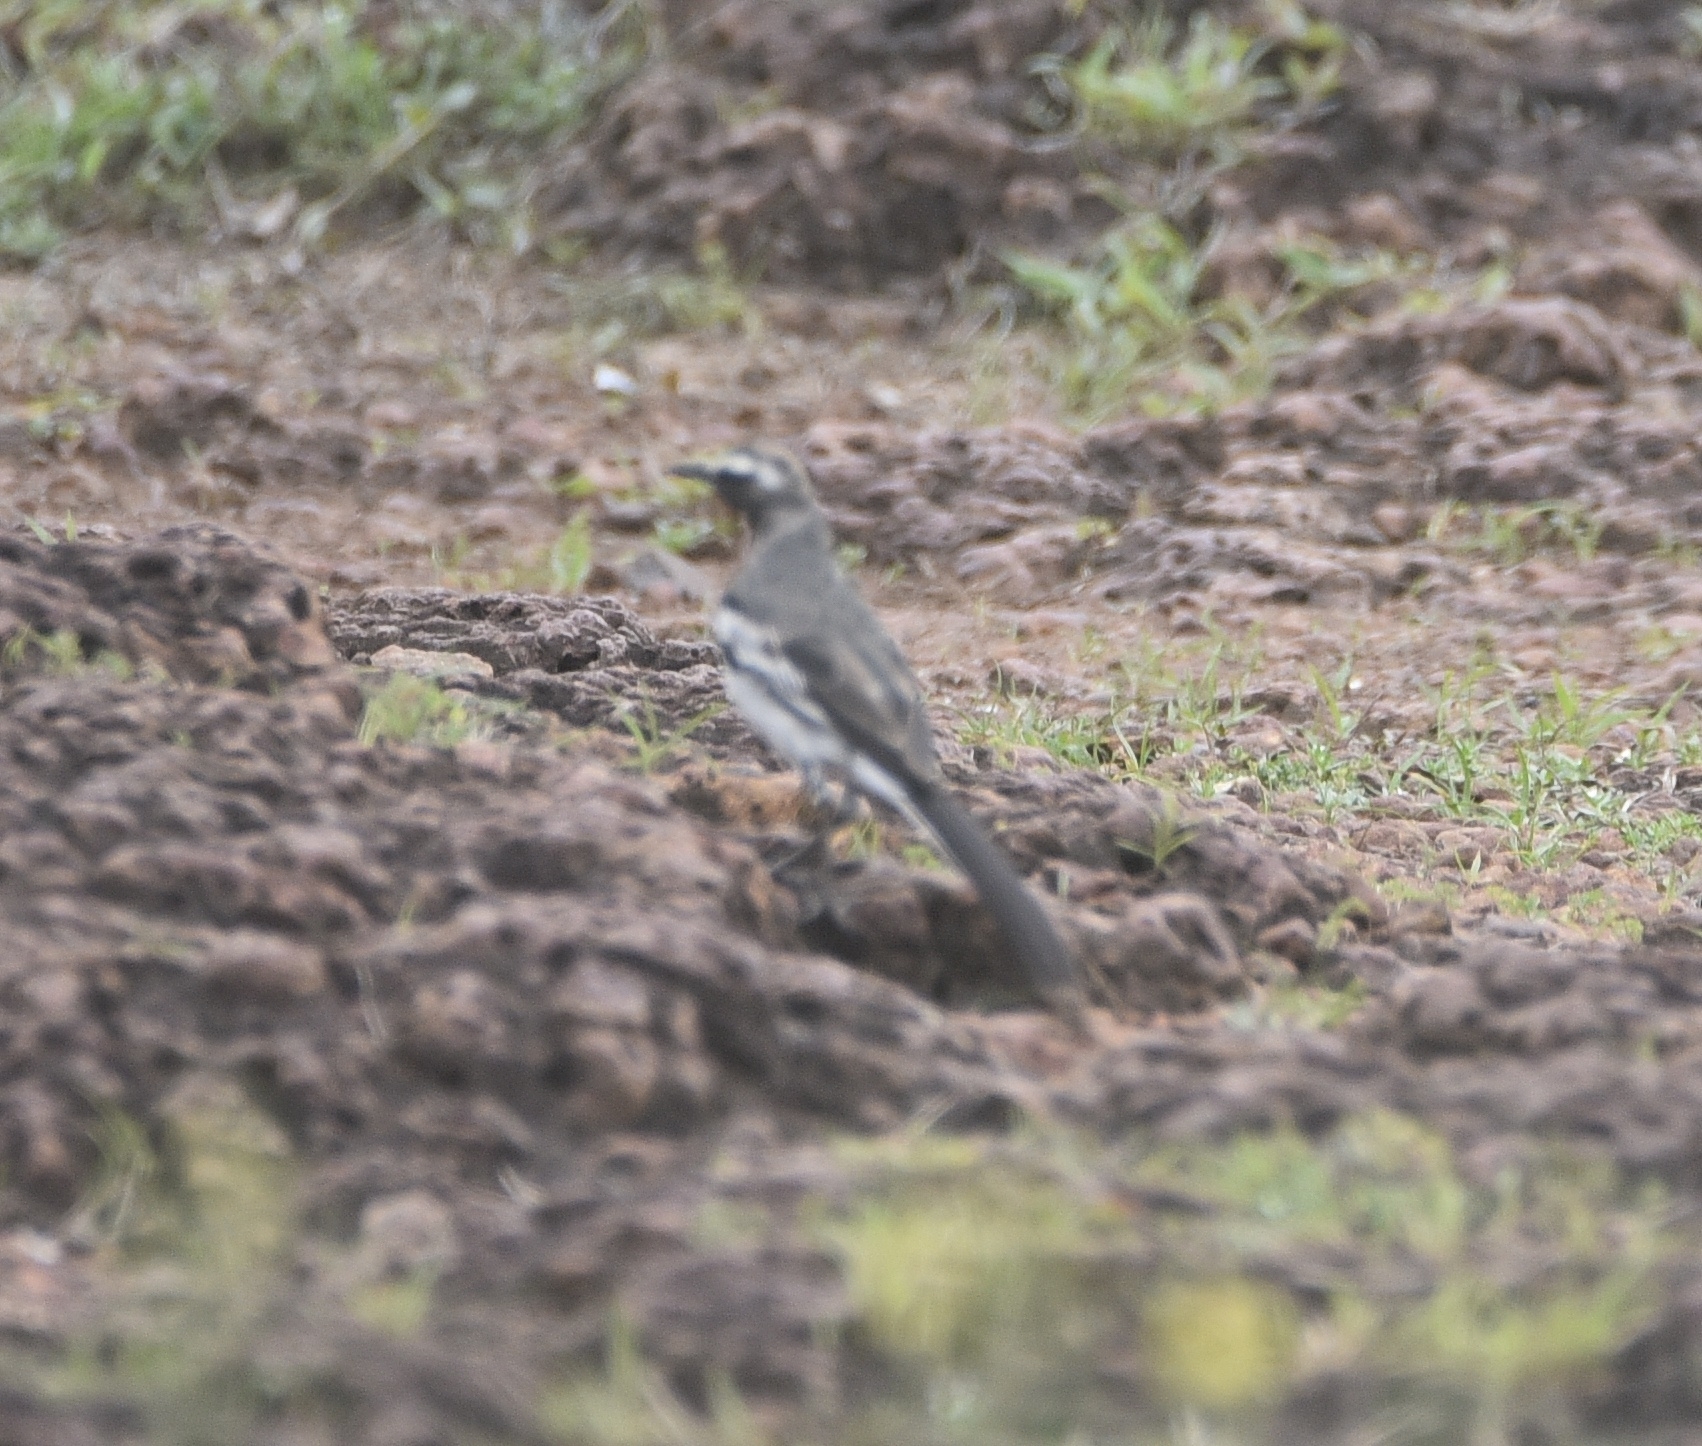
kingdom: Animalia
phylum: Chordata
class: Aves
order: Passeriformes
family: Motacillidae
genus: Motacilla
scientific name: Motacilla maderaspatensis
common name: White-browed wagtail
